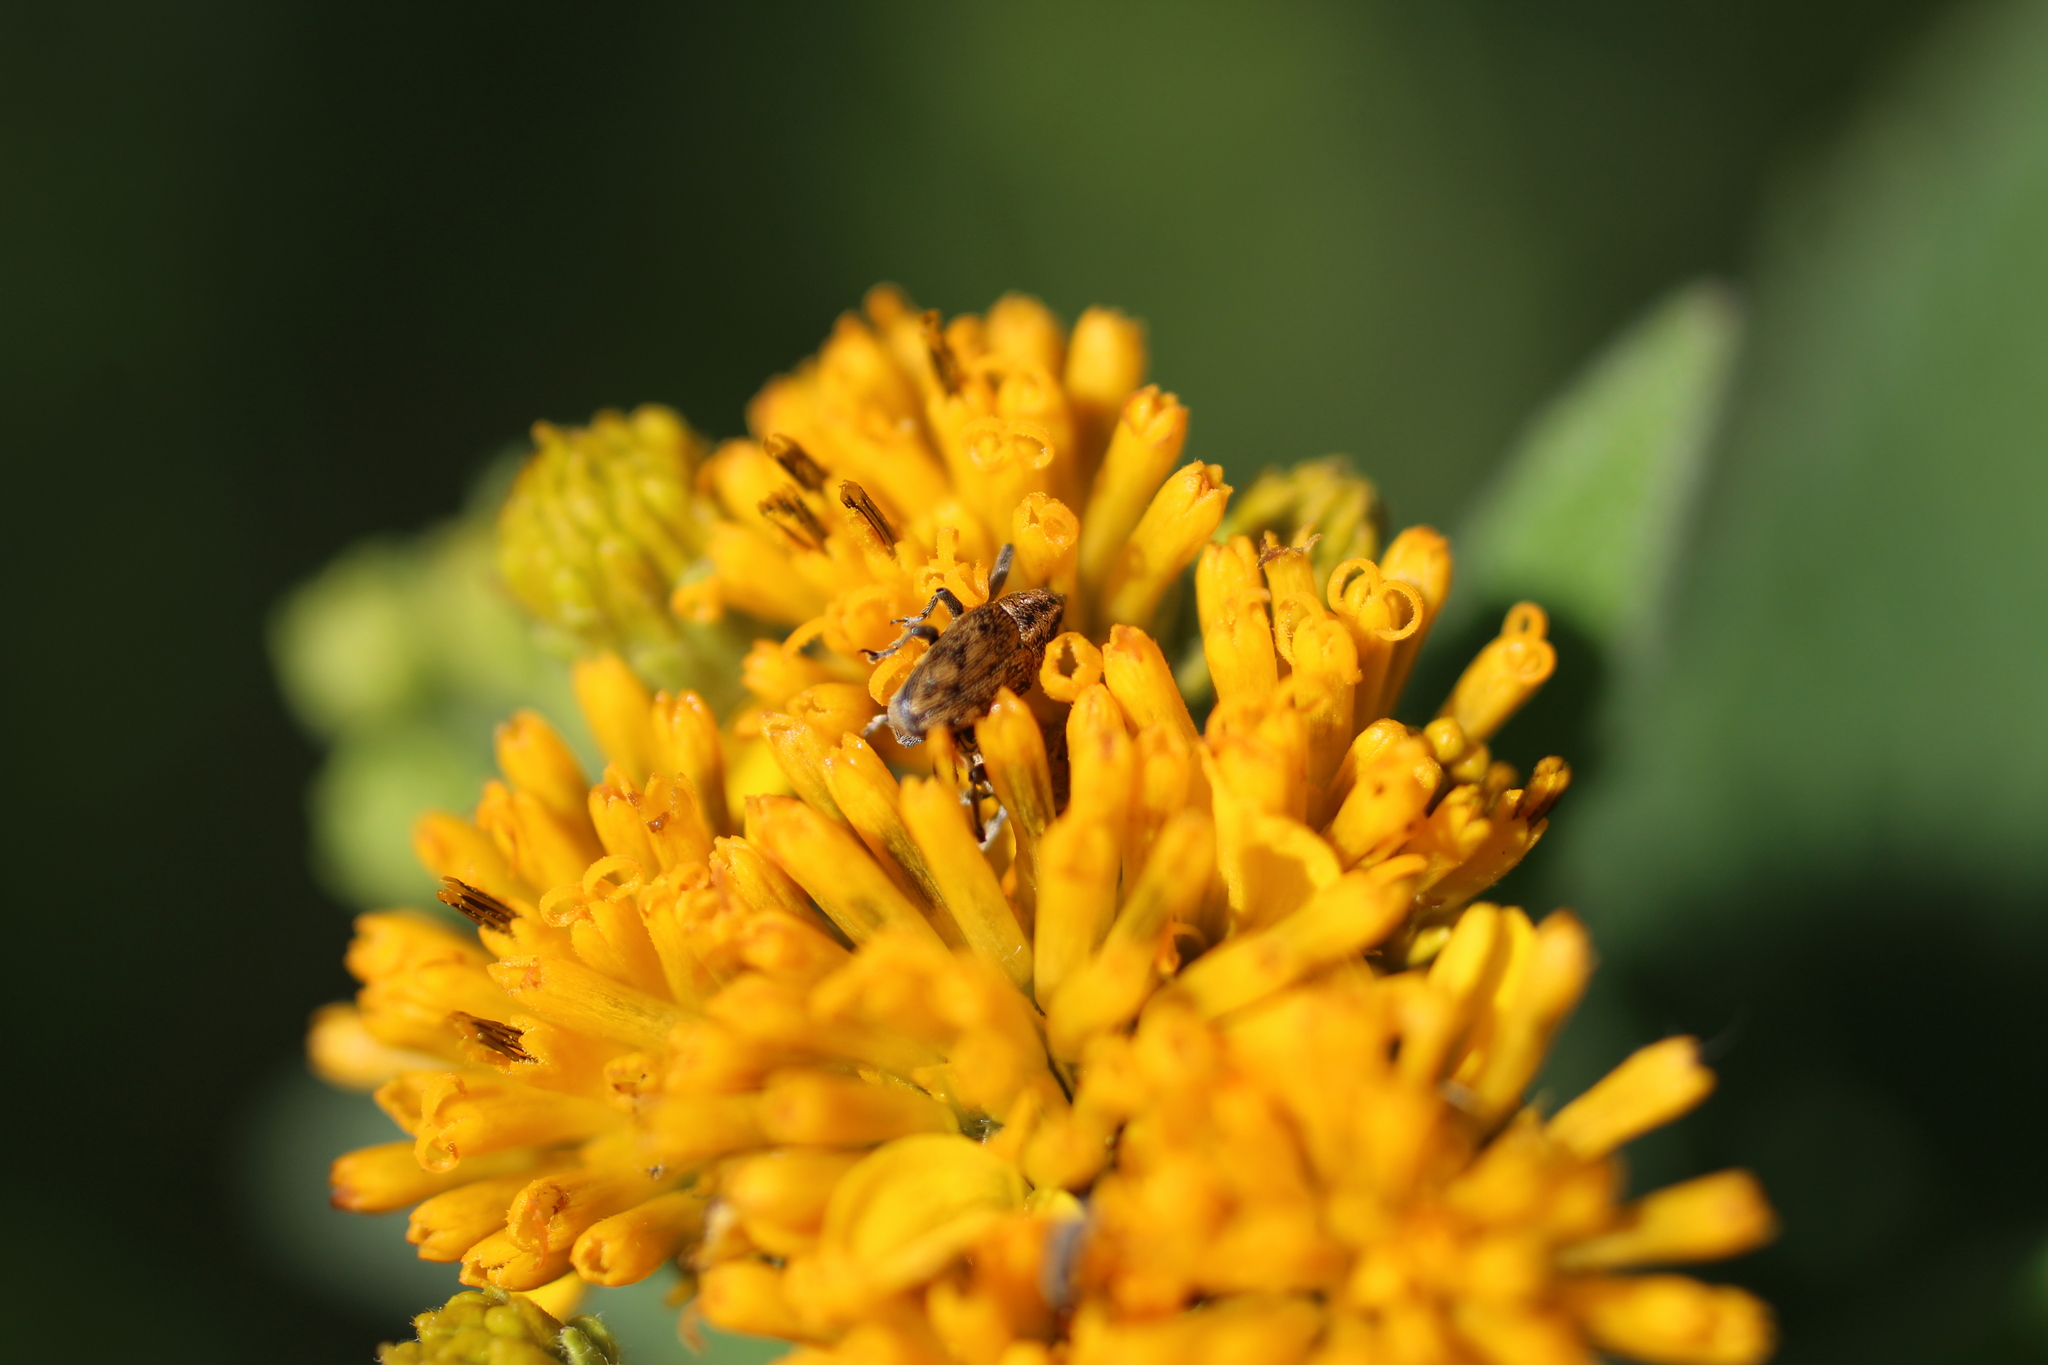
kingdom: Animalia
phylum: Arthropoda
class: Insecta
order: Coleoptera
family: Curculionidae
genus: Pseudocentrinus
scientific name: Pseudocentrinus ochraceus
